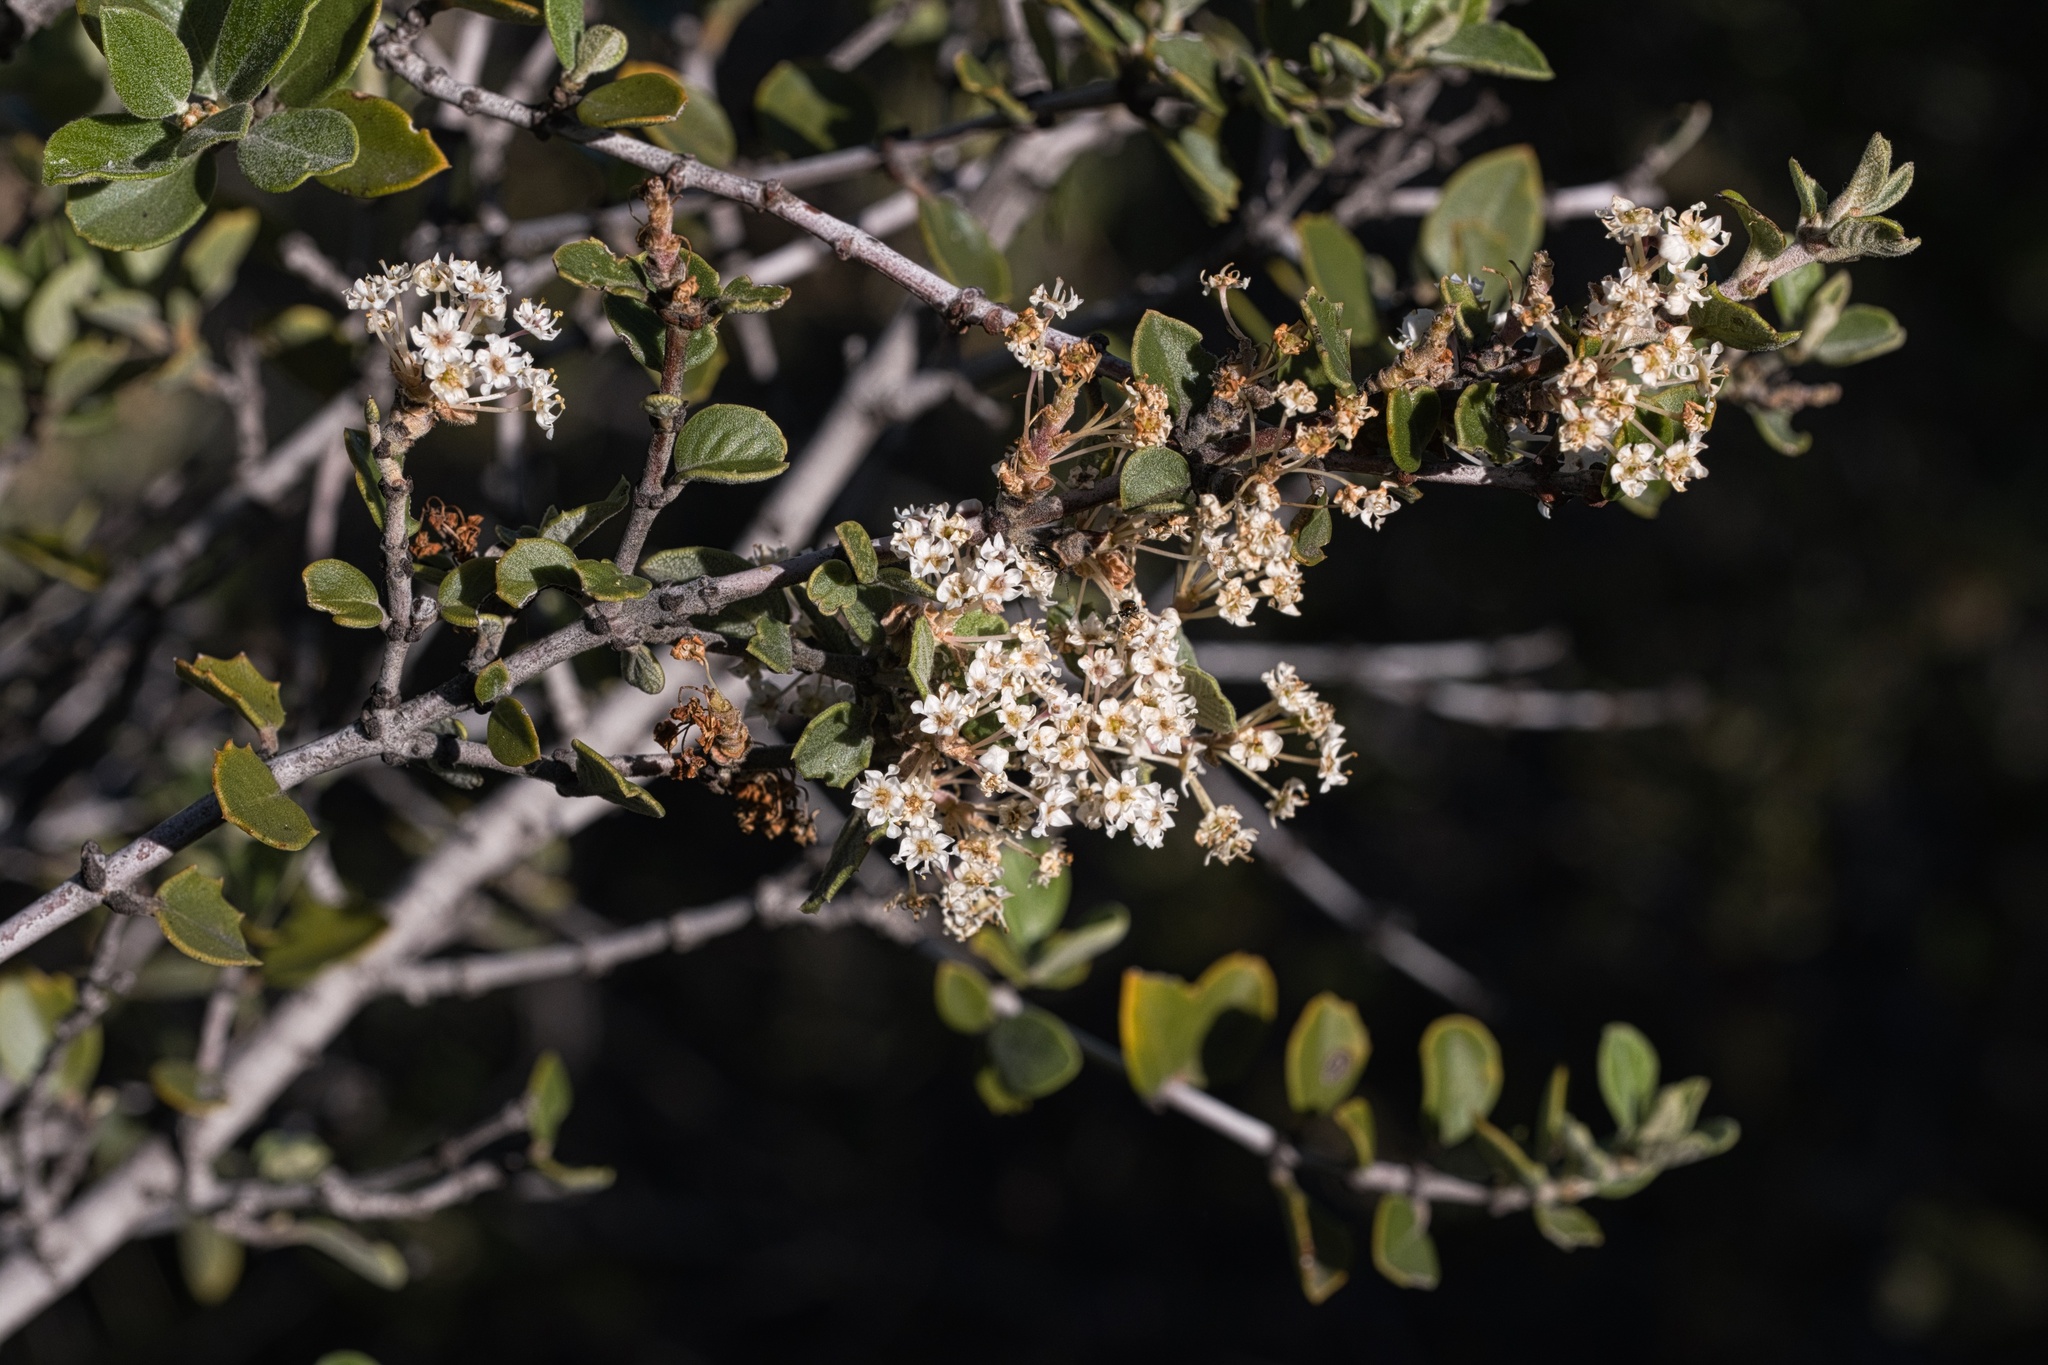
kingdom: Plantae
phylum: Tracheophyta
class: Magnoliopsida
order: Rosales
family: Rhamnaceae
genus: Ceanothus
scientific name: Ceanothus perplexans
